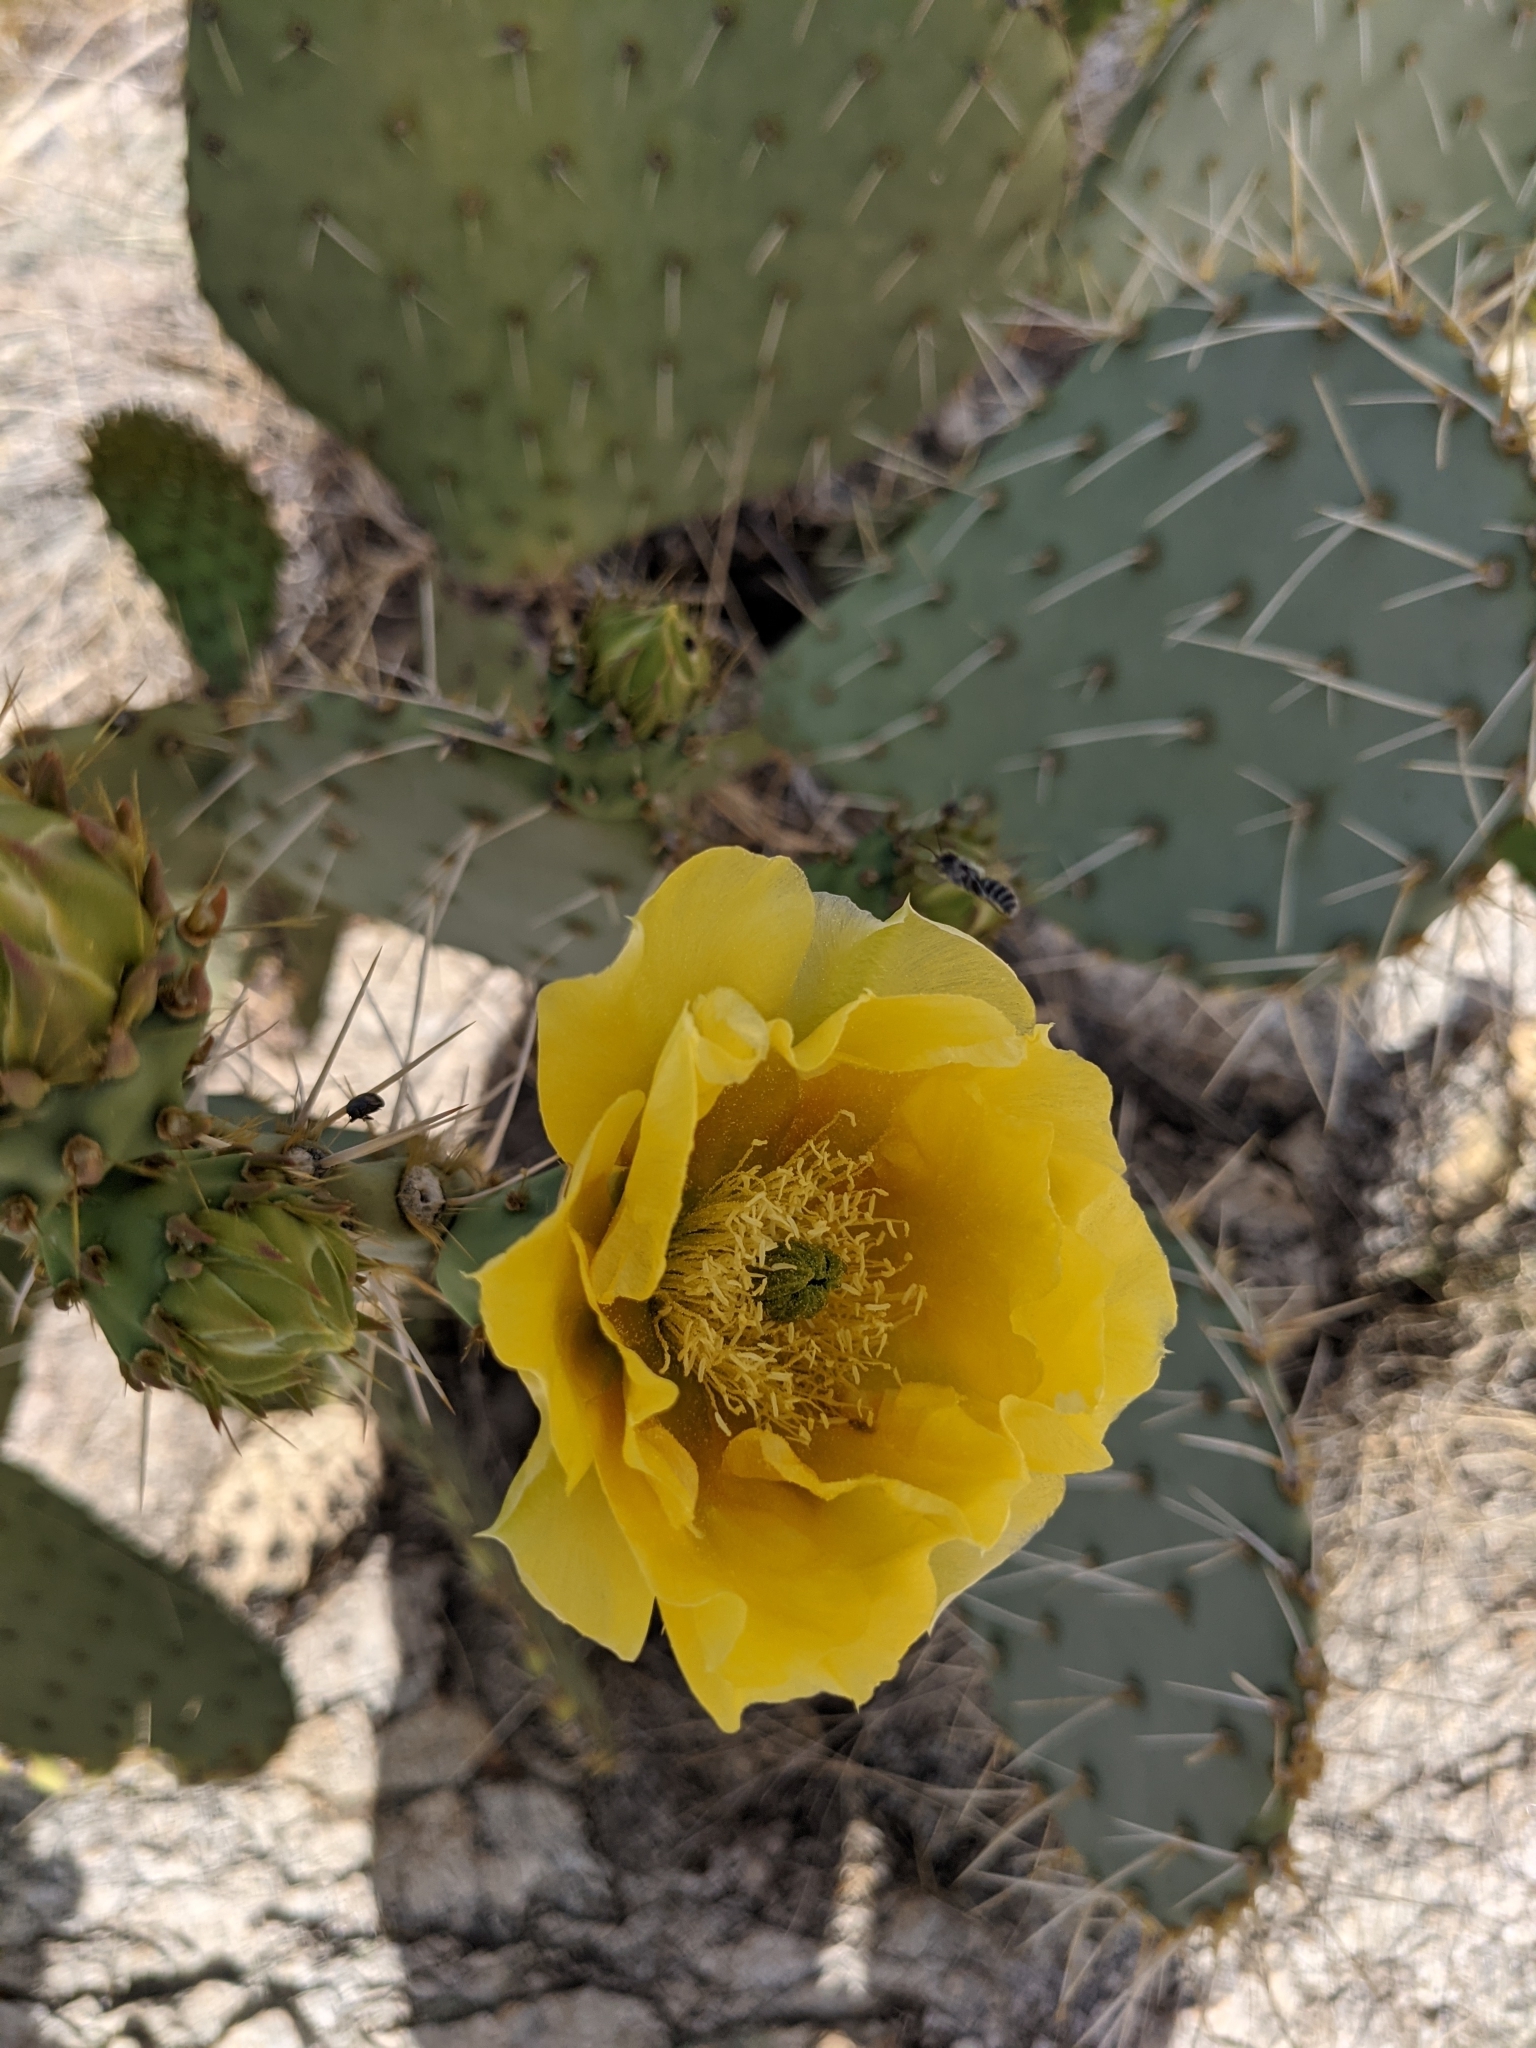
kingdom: Plantae
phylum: Tracheophyta
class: Magnoliopsida
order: Caryophyllales
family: Cactaceae
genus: Opuntia
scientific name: Opuntia engelmannii
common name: Cactus-apple
